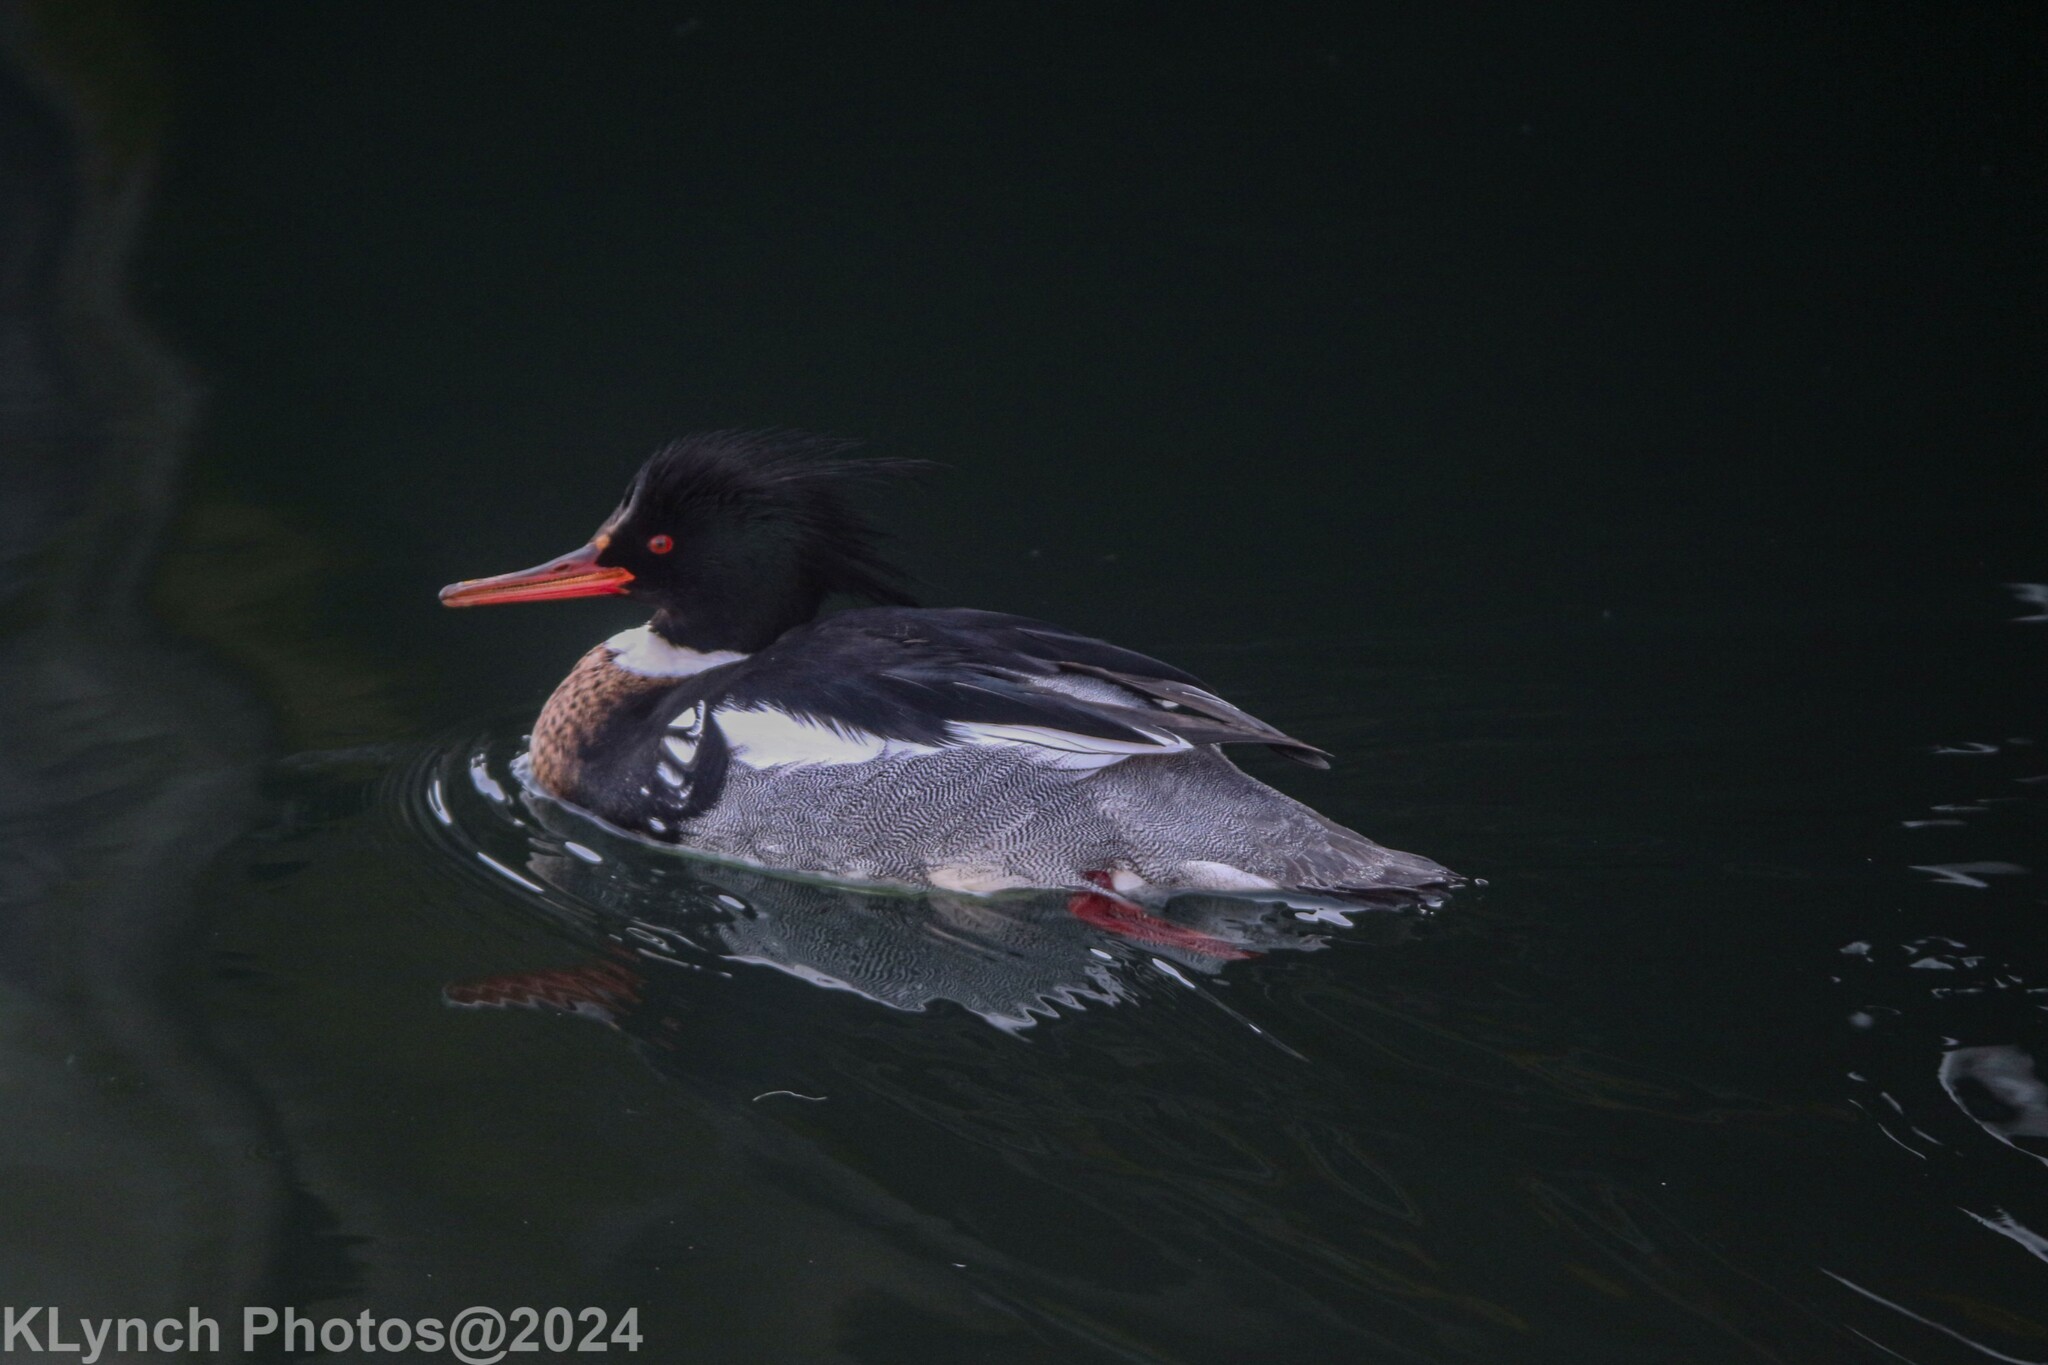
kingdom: Animalia
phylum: Chordata
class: Aves
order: Anseriformes
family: Anatidae
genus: Mergus
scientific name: Mergus serrator
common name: Red-breasted merganser
